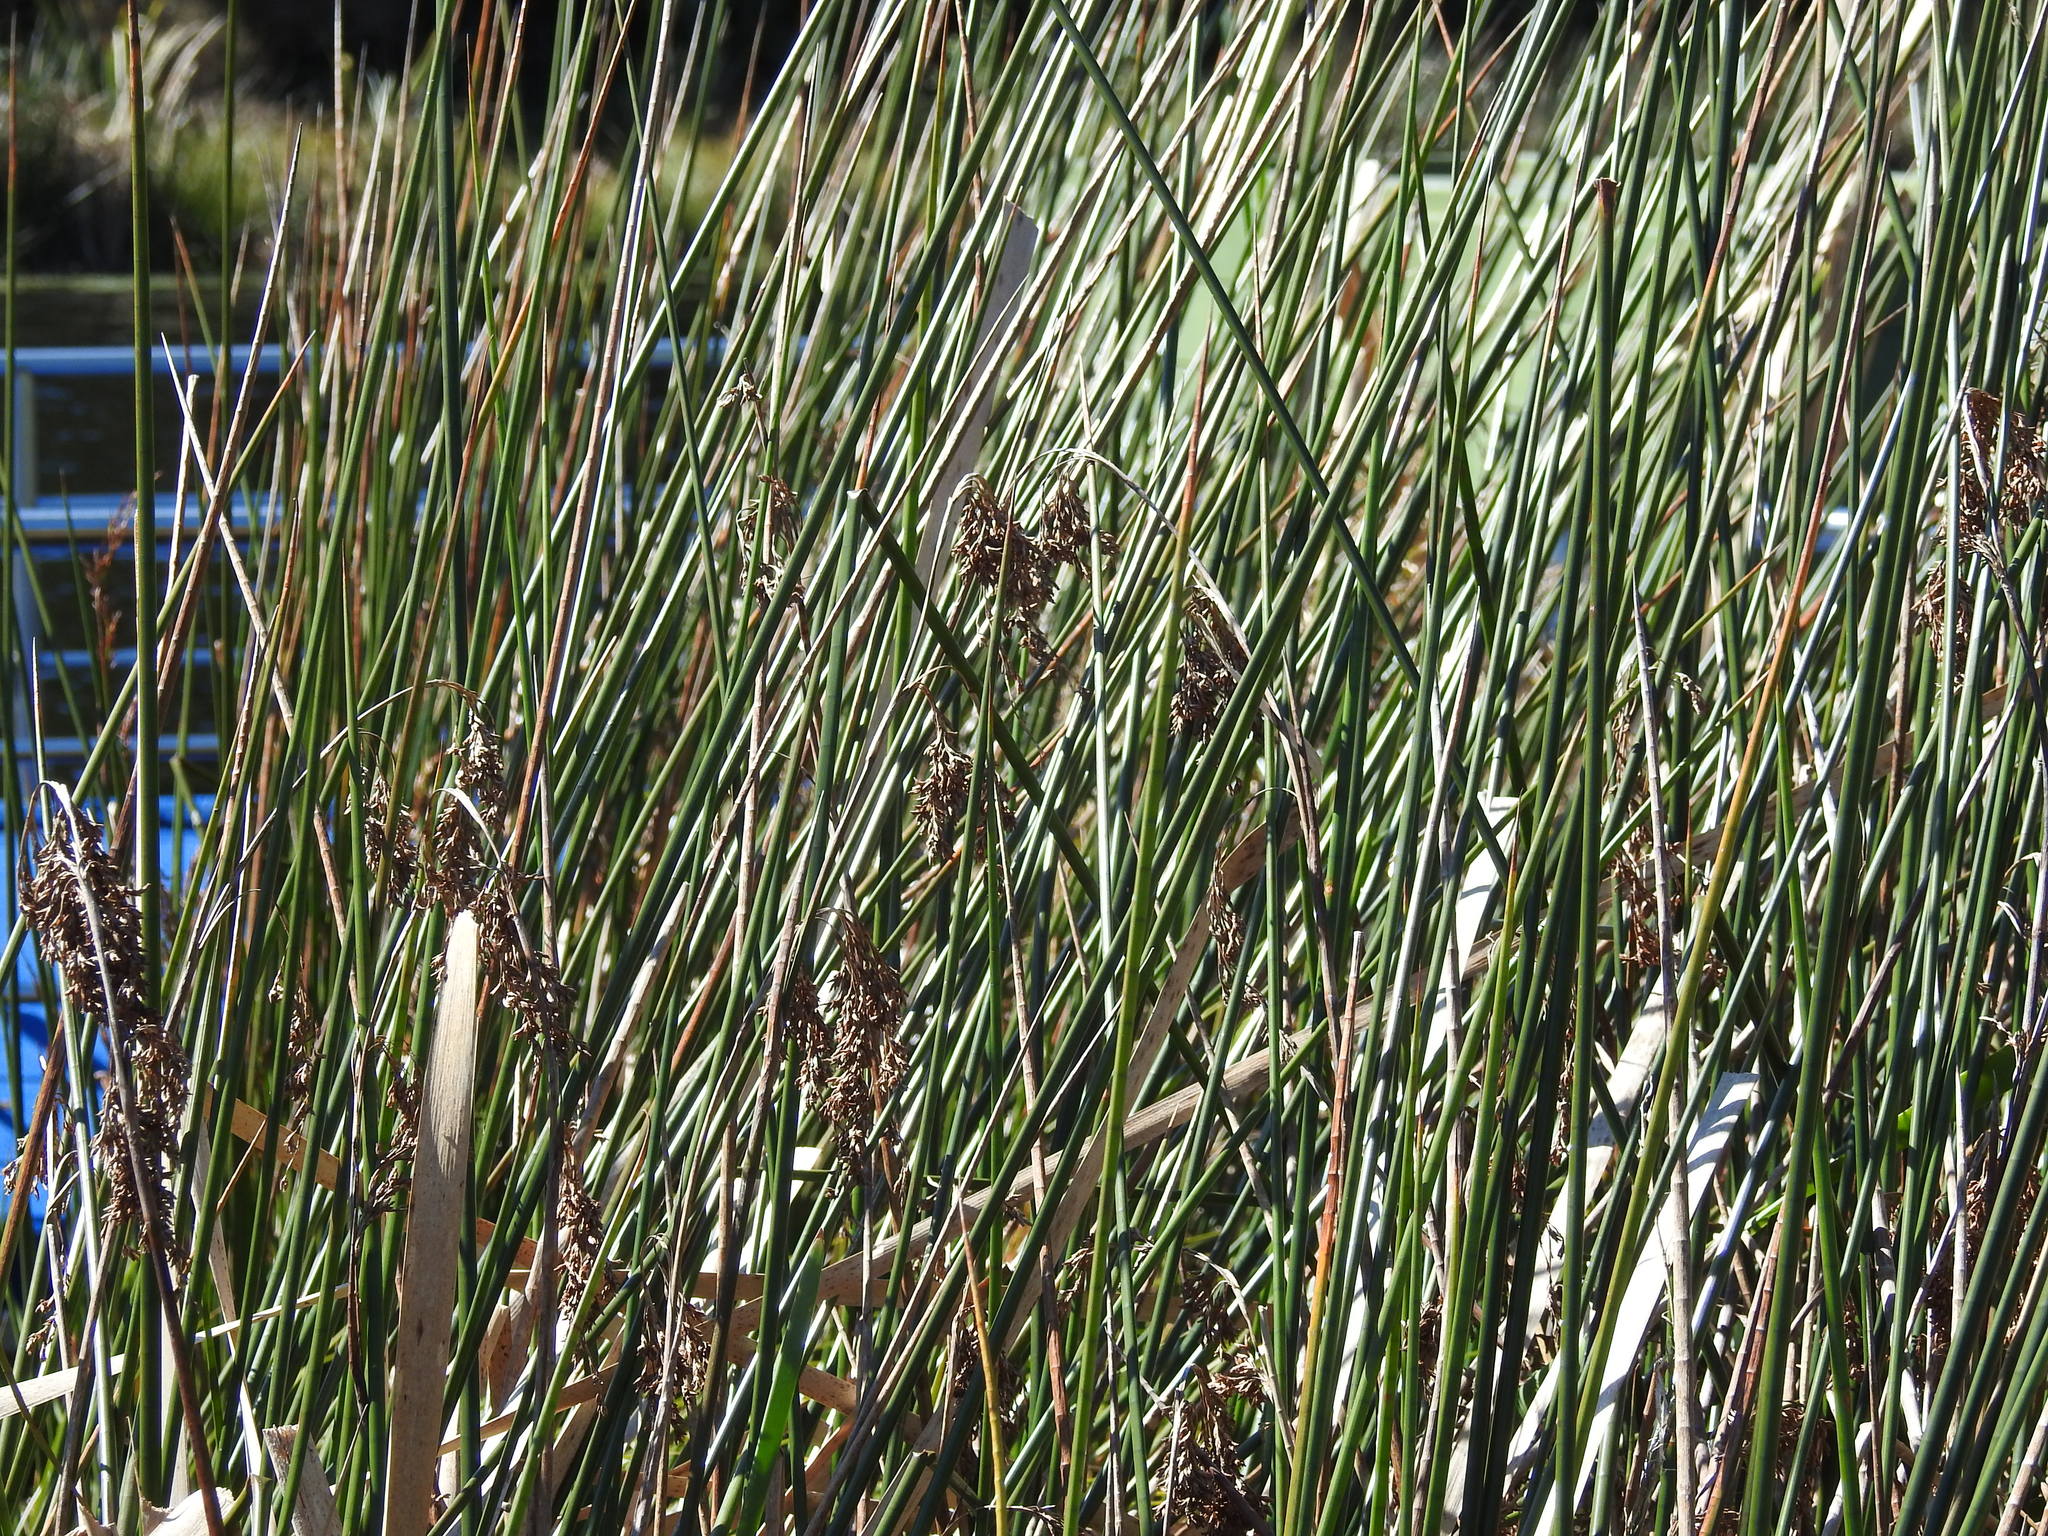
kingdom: Plantae
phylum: Tracheophyta
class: Liliopsida
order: Poales
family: Cyperaceae
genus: Schoenoplectus
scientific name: Schoenoplectus tabernaemontani
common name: Grey club-rush
